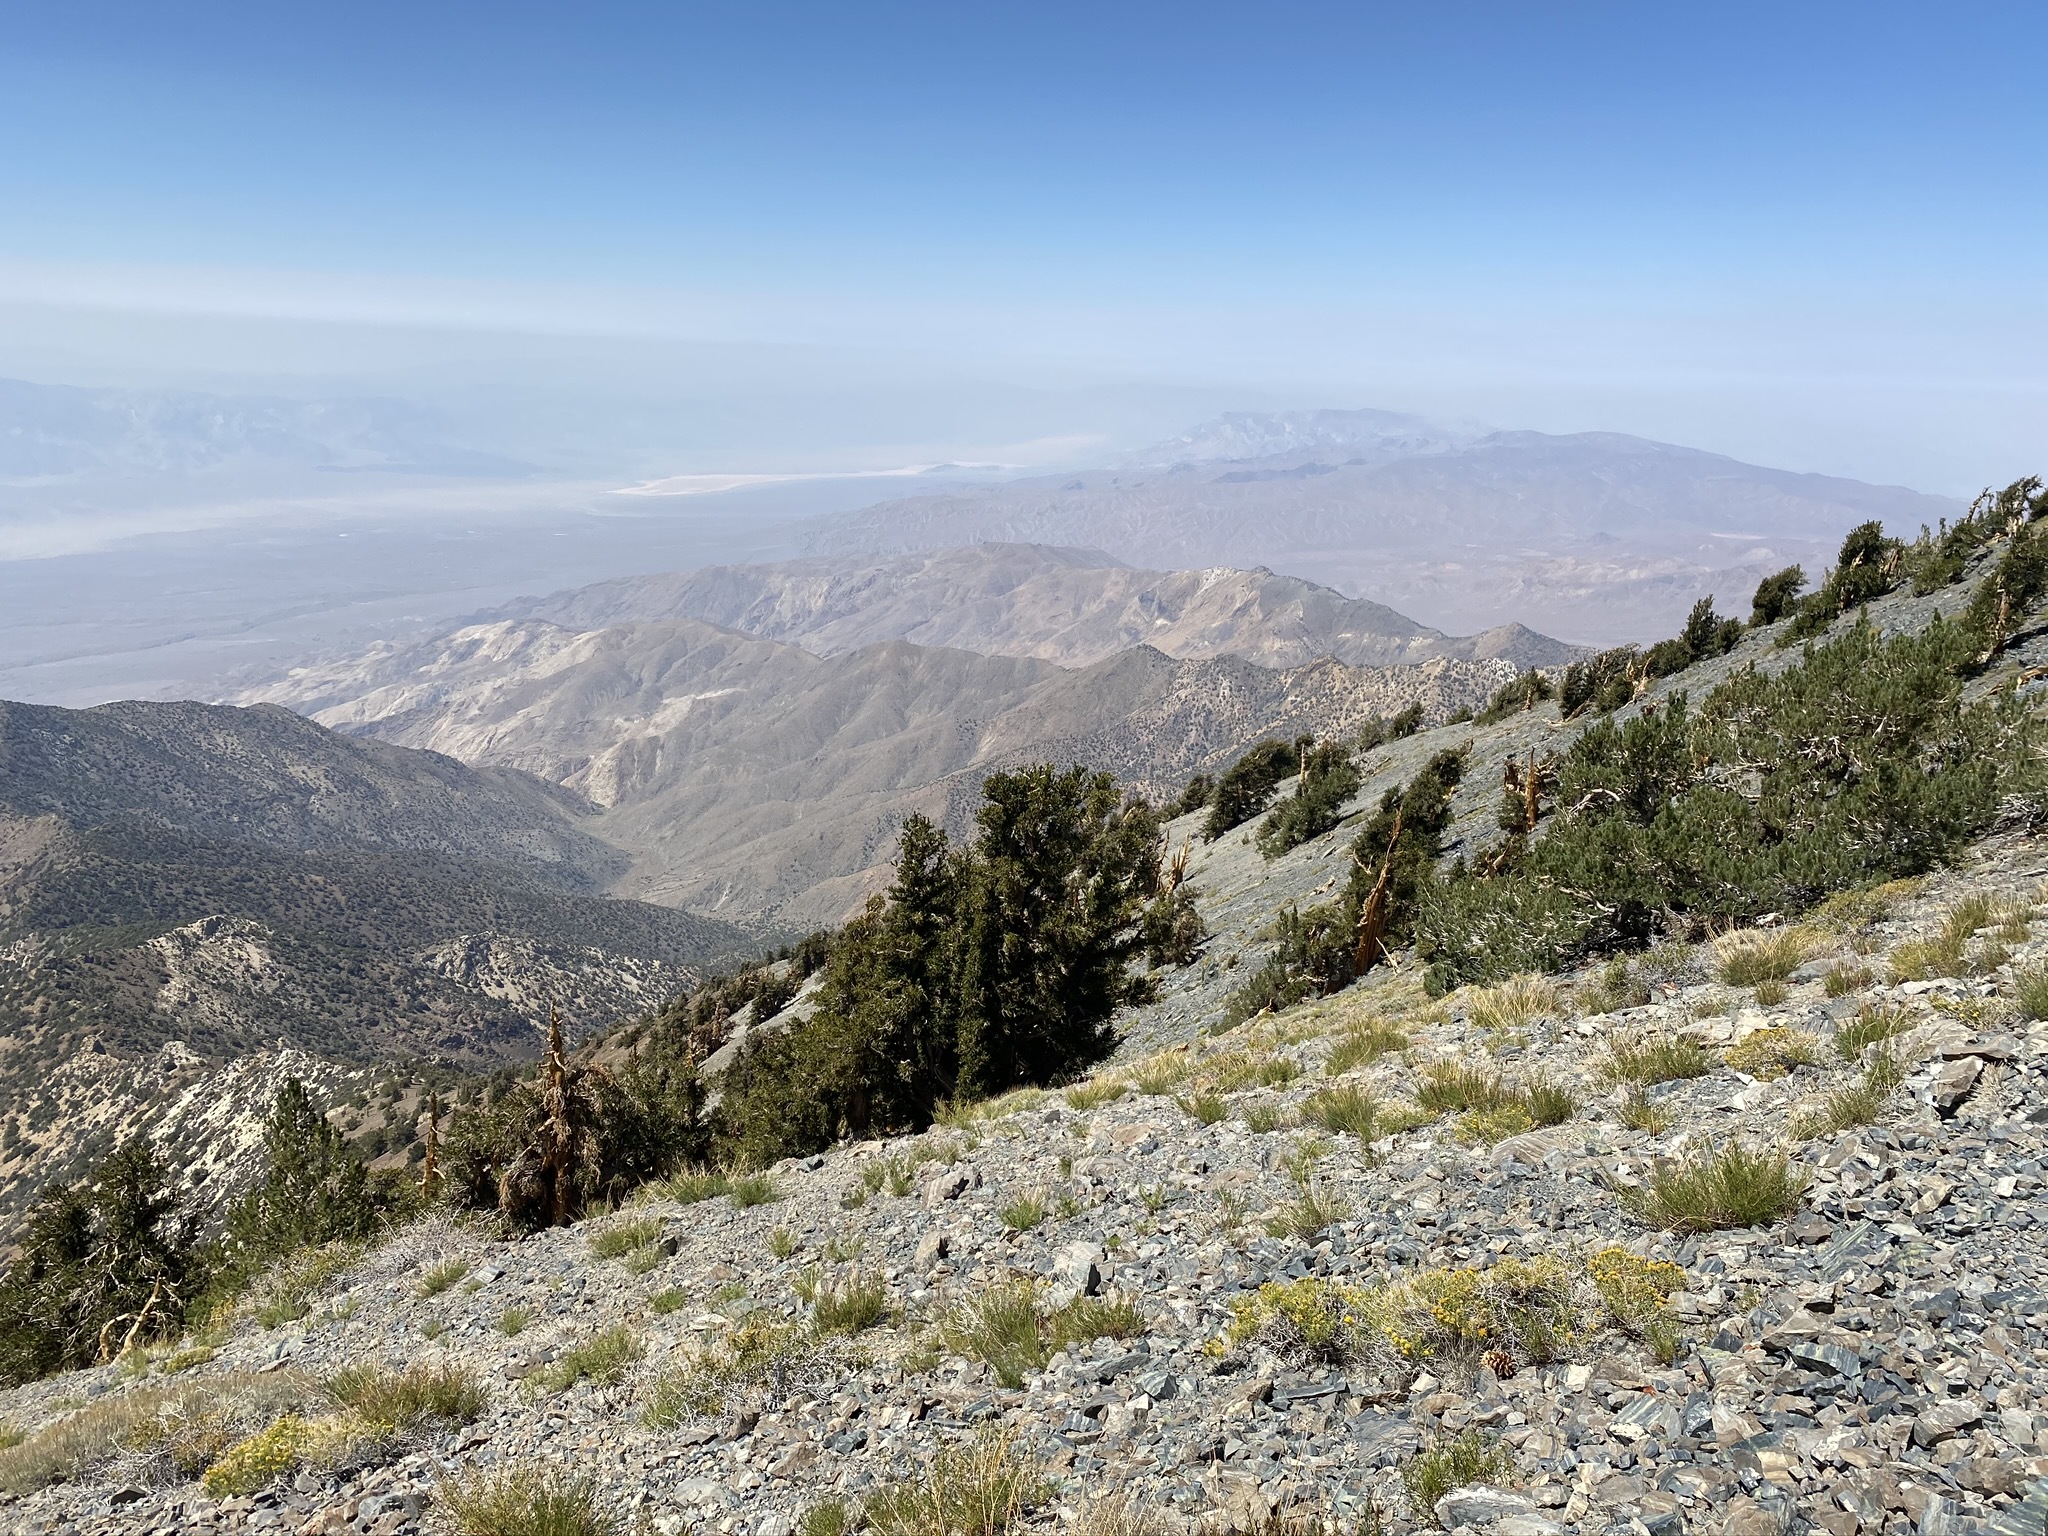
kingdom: Plantae
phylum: Tracheophyta
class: Pinopsida
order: Pinales
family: Pinaceae
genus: Pinus
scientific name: Pinus longaeva
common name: Intermountain bristlecone pine
